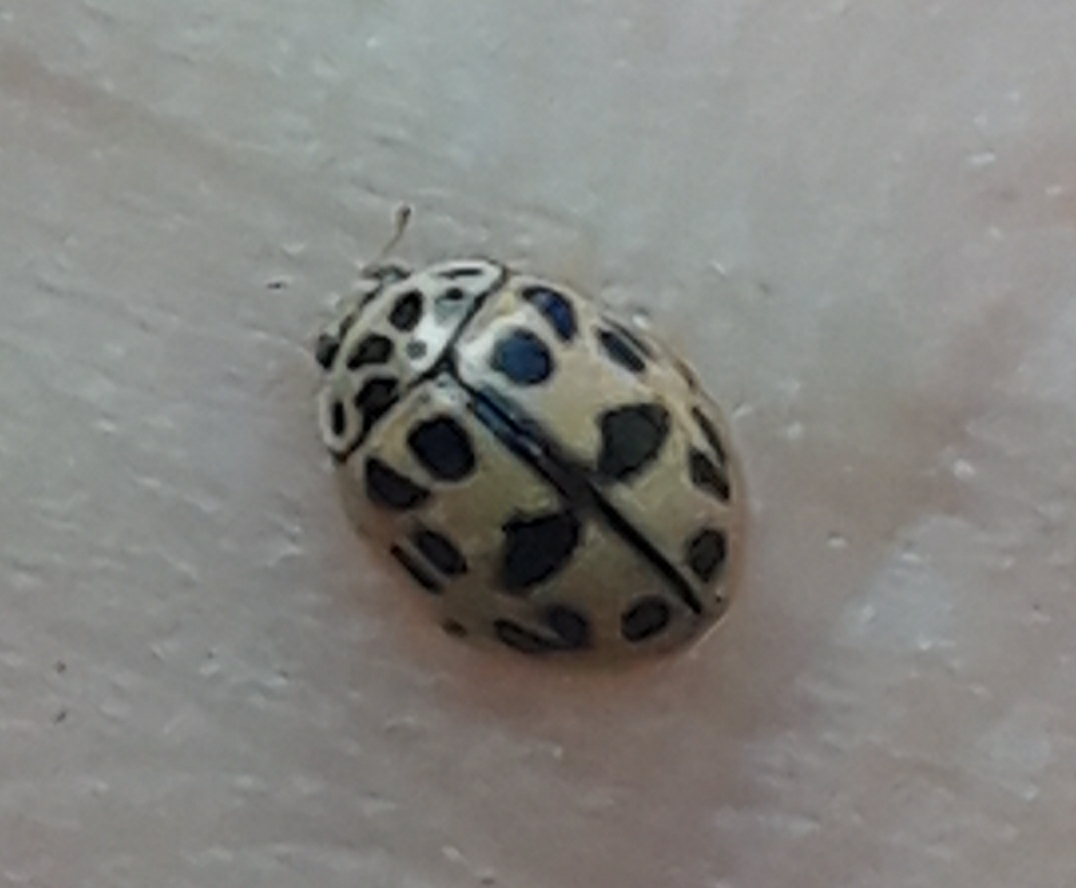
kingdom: Animalia
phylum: Arthropoda
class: Insecta
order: Coleoptera
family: Coccinellidae
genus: Oenopia
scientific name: Oenopia conglobata
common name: Ladybird beetle
